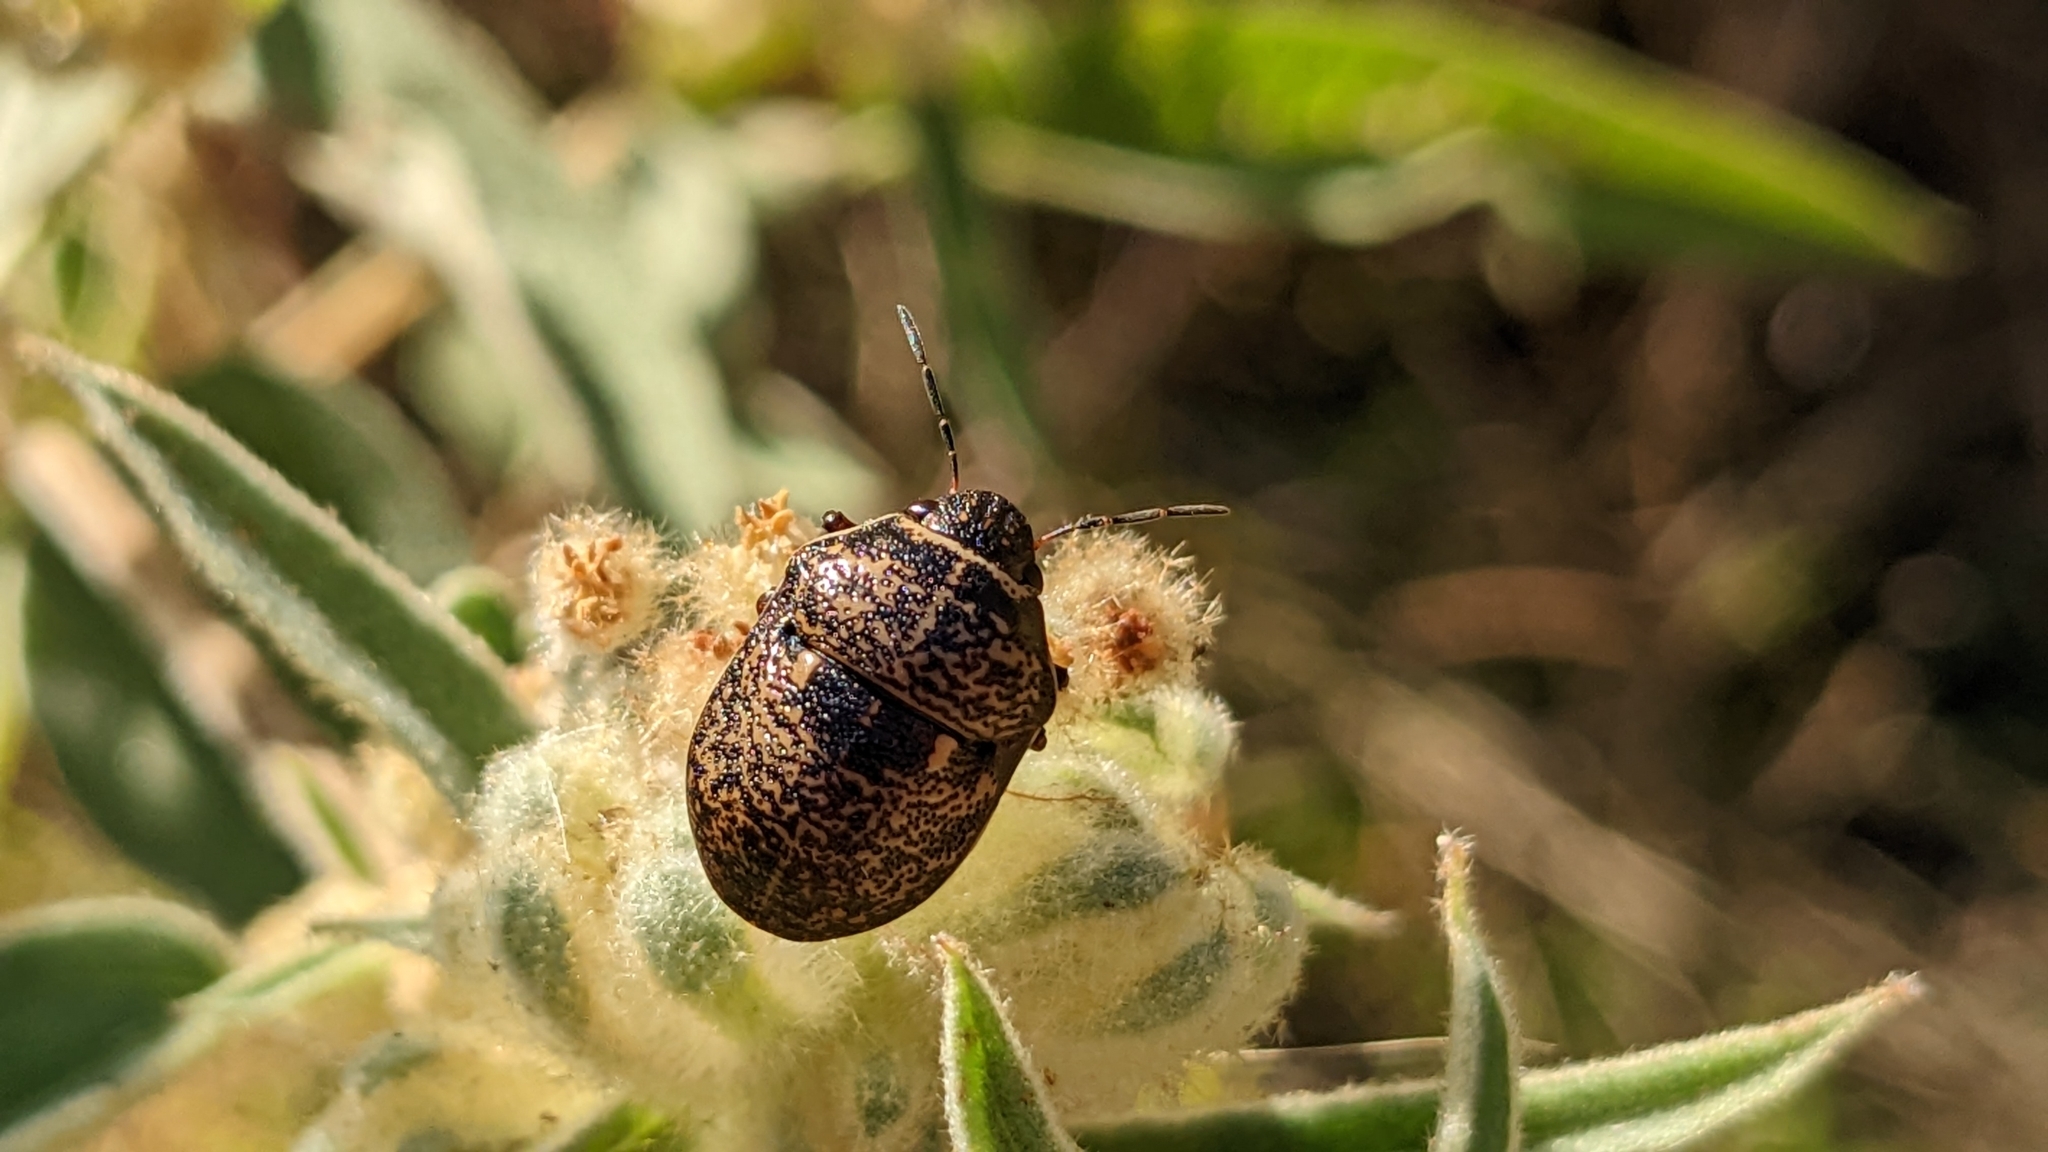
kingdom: Animalia
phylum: Arthropoda
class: Insecta
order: Hemiptera
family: Scutelleridae
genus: Orsilochides
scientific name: Orsilochides guttata
